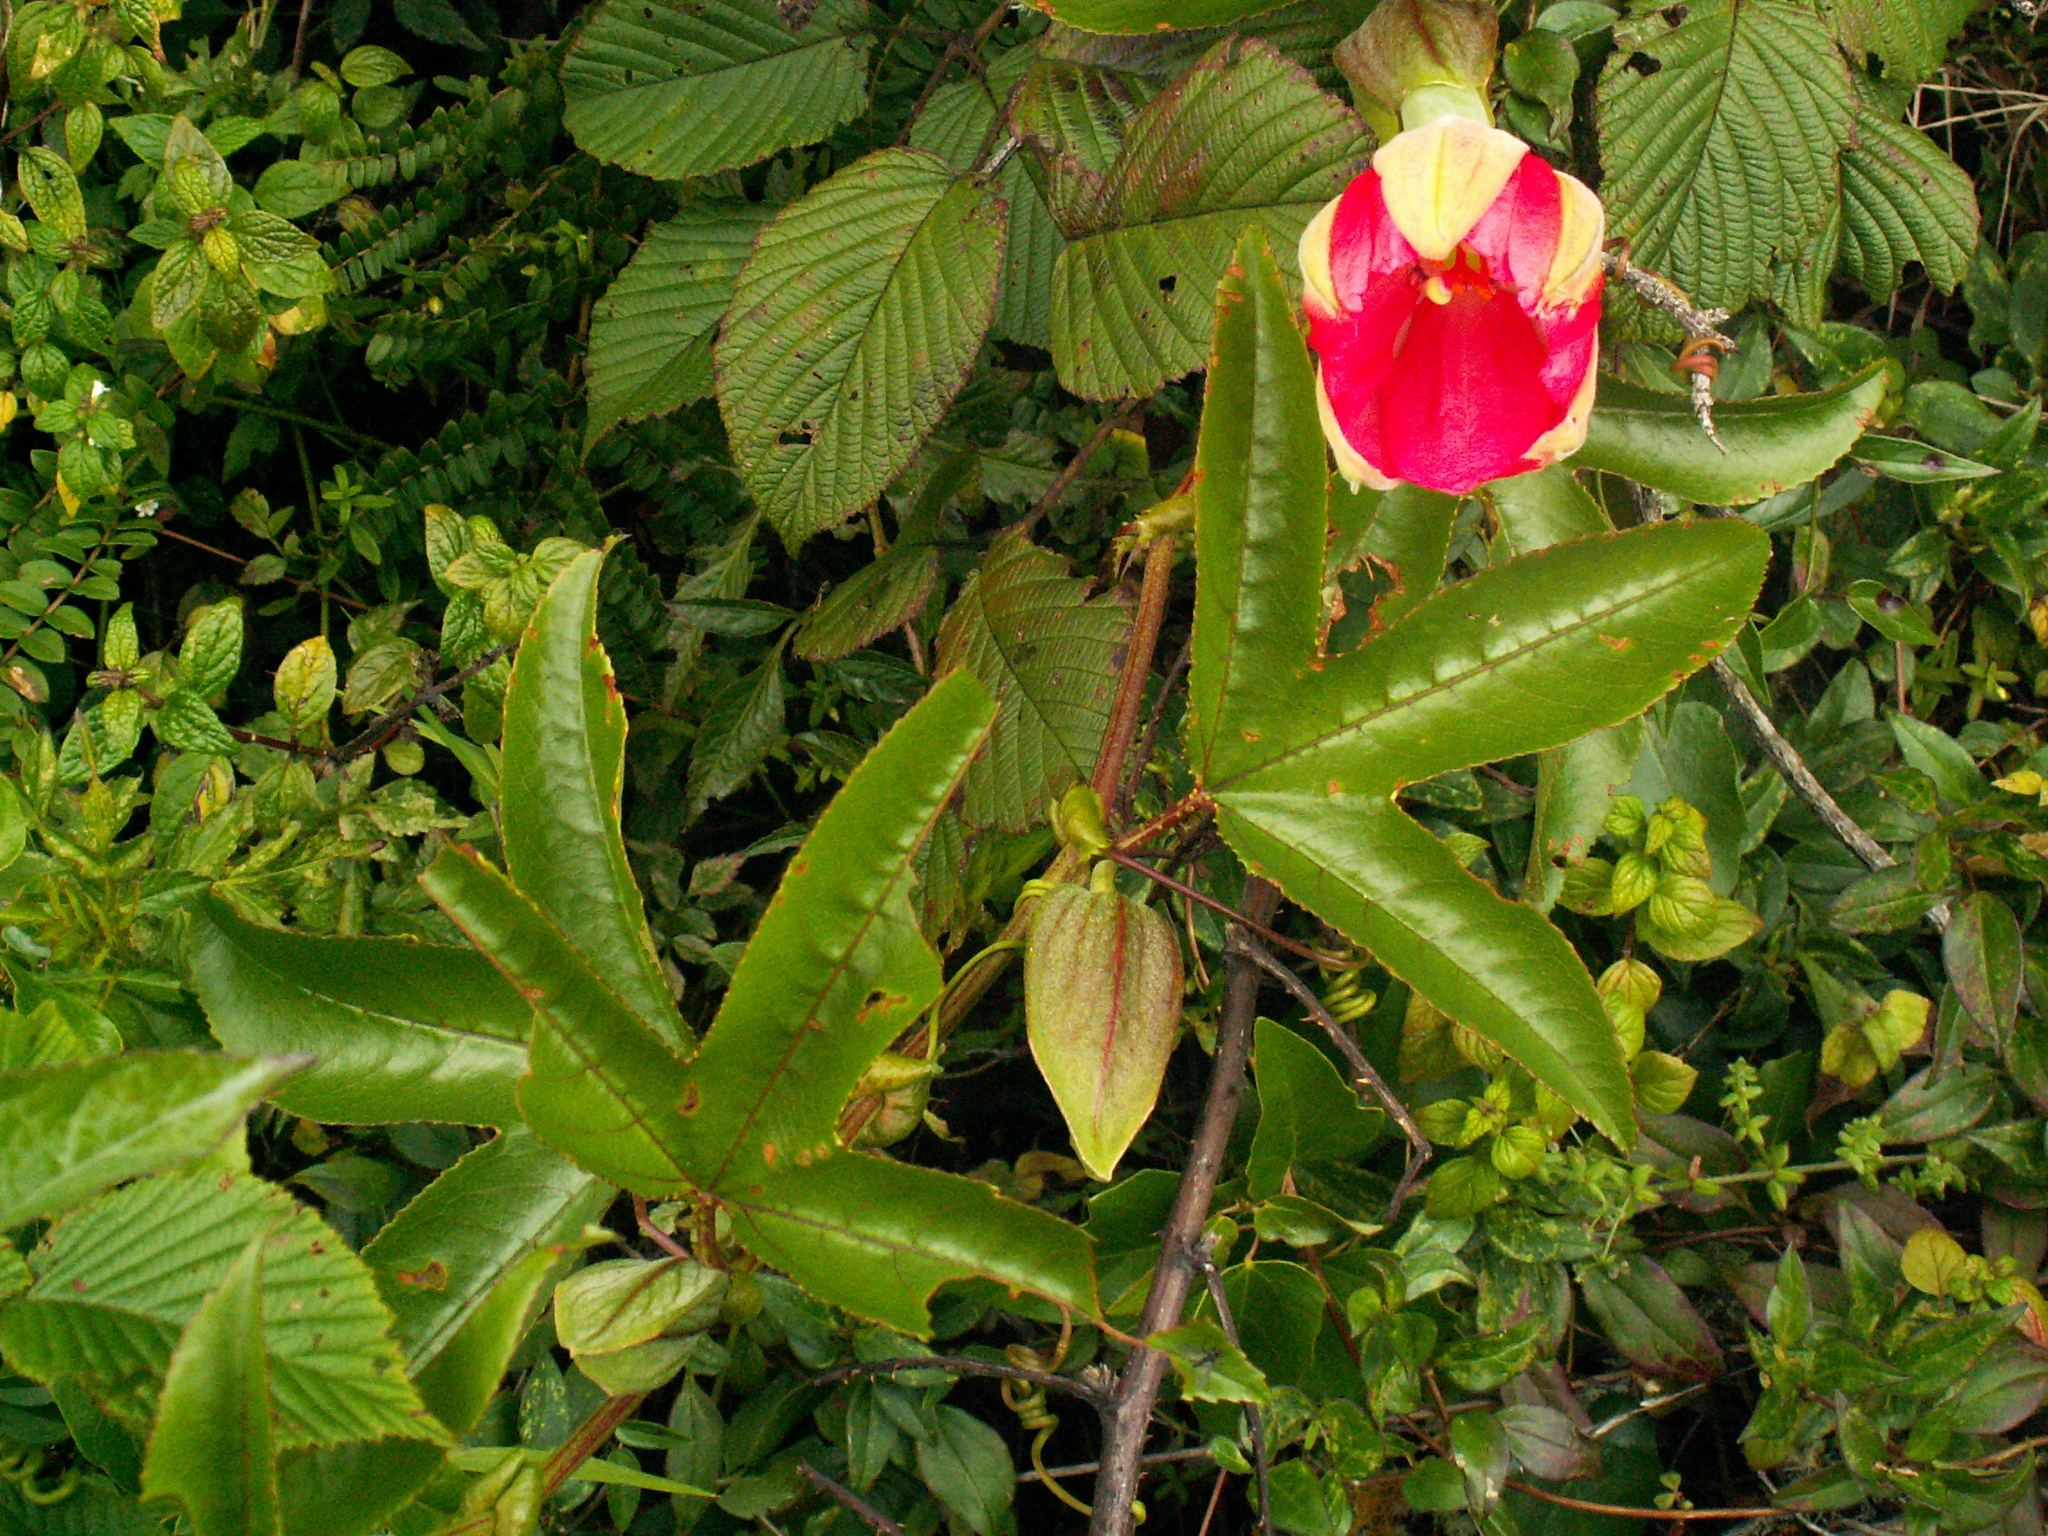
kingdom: Plantae
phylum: Tracheophyta
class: Magnoliopsida
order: Malpighiales
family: Passifloraceae
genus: Passiflora
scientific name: Passiflora mixta
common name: Passion flower
